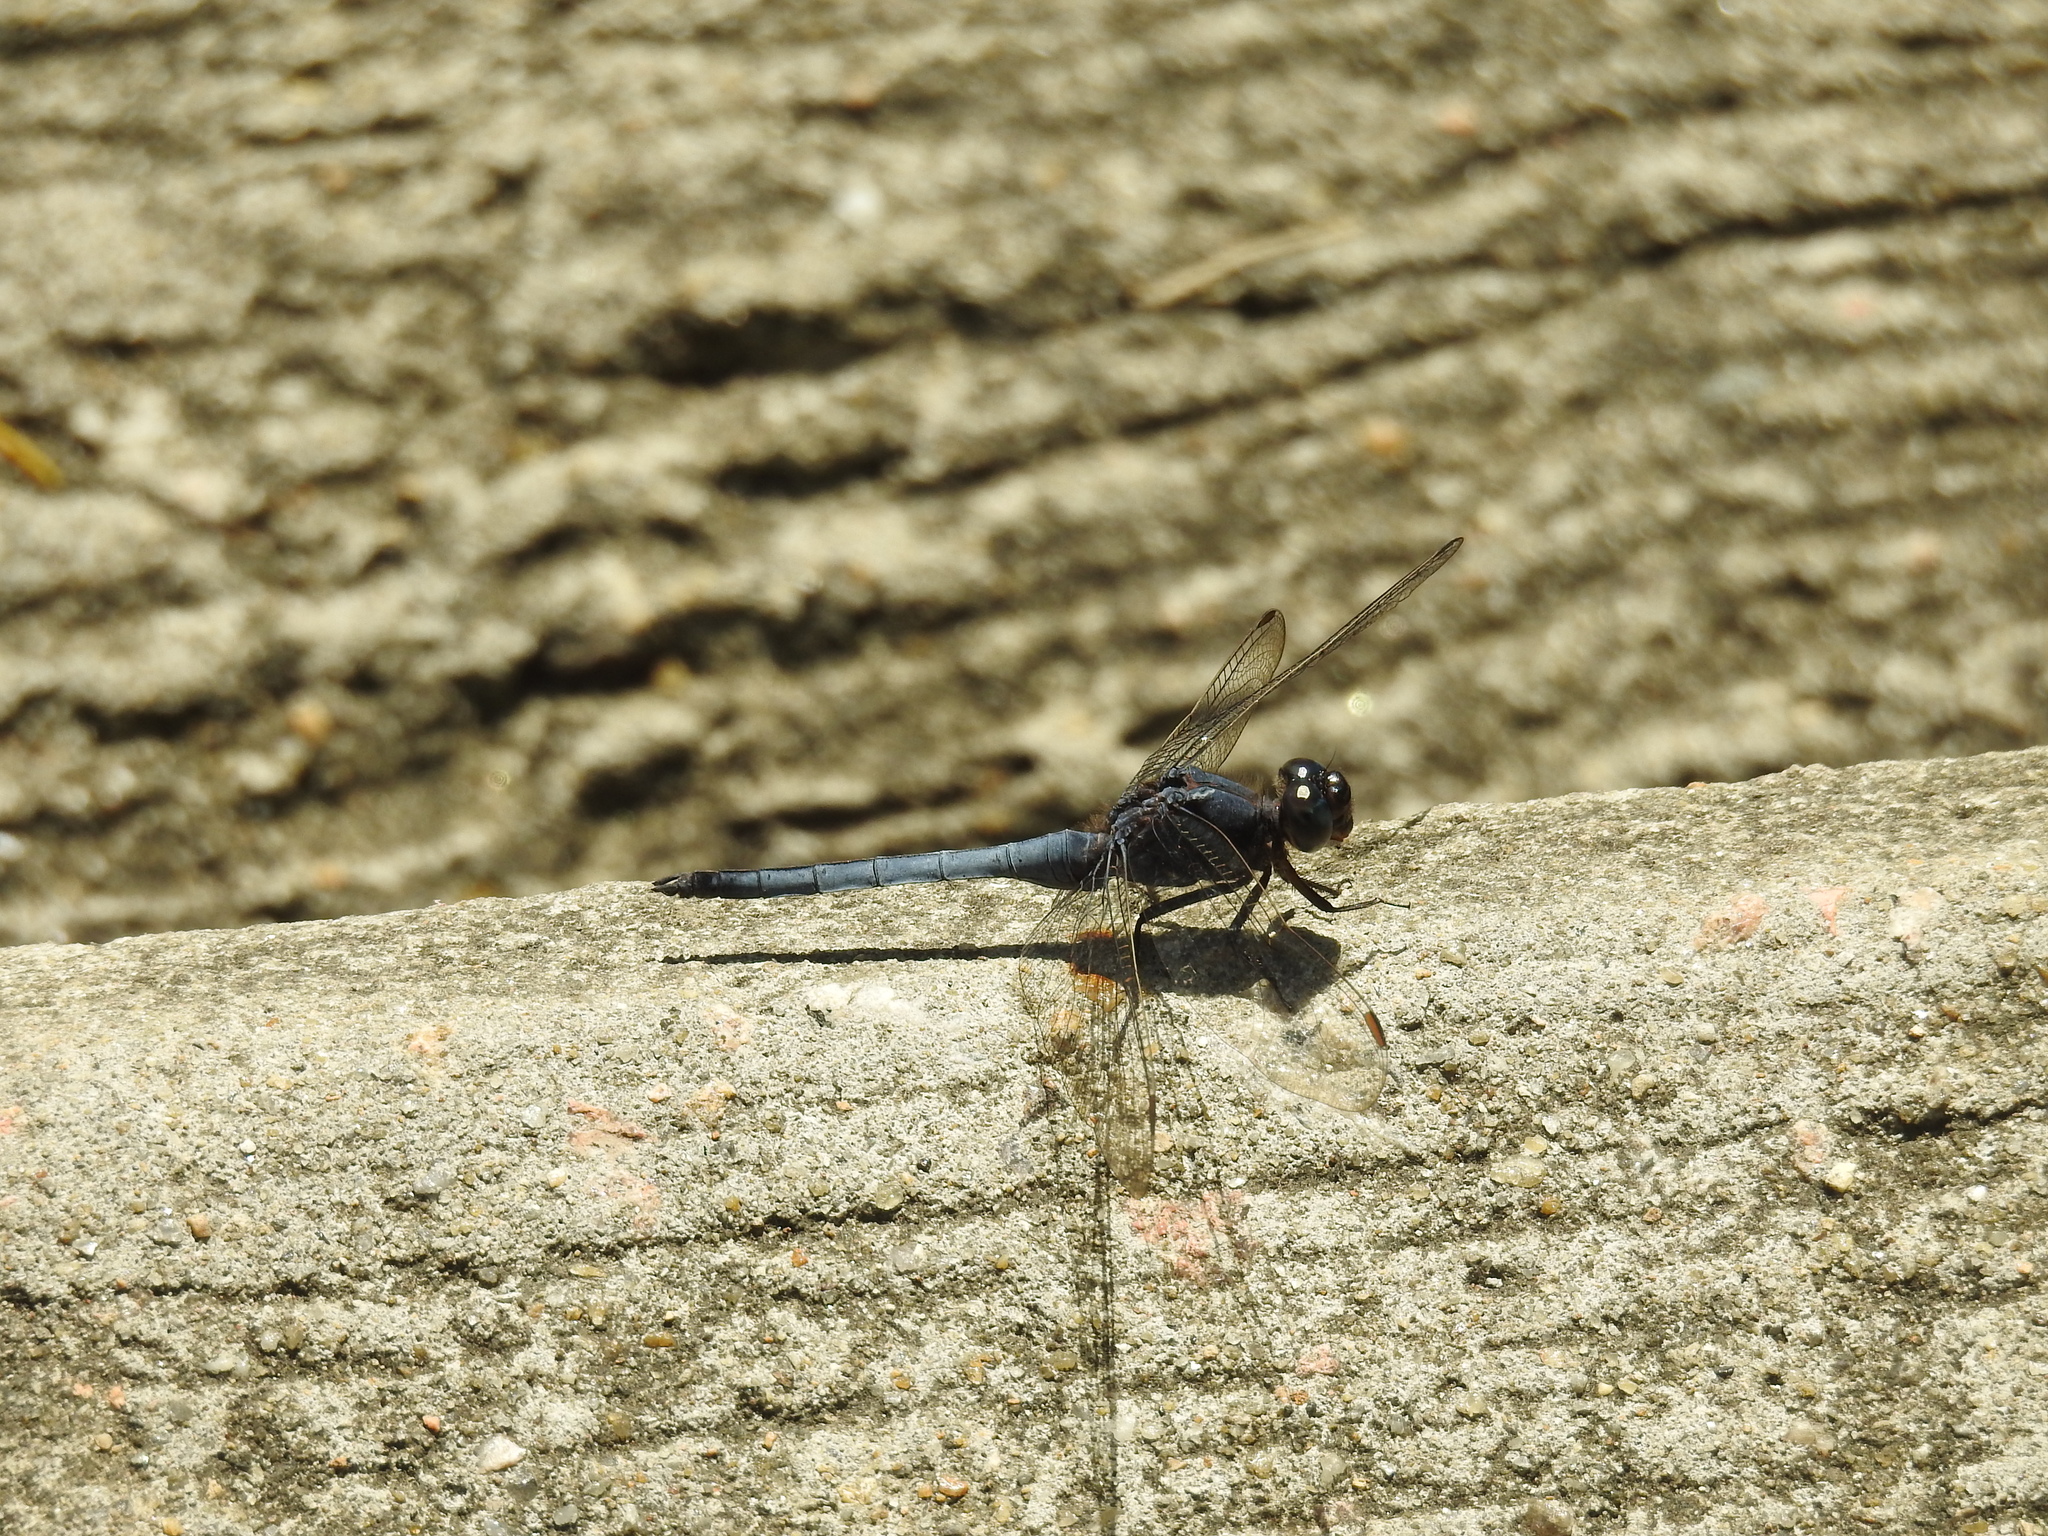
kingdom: Animalia
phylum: Arthropoda
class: Insecta
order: Odonata
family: Libellulidae
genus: Orthetrum
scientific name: Orthetrum glaucum
